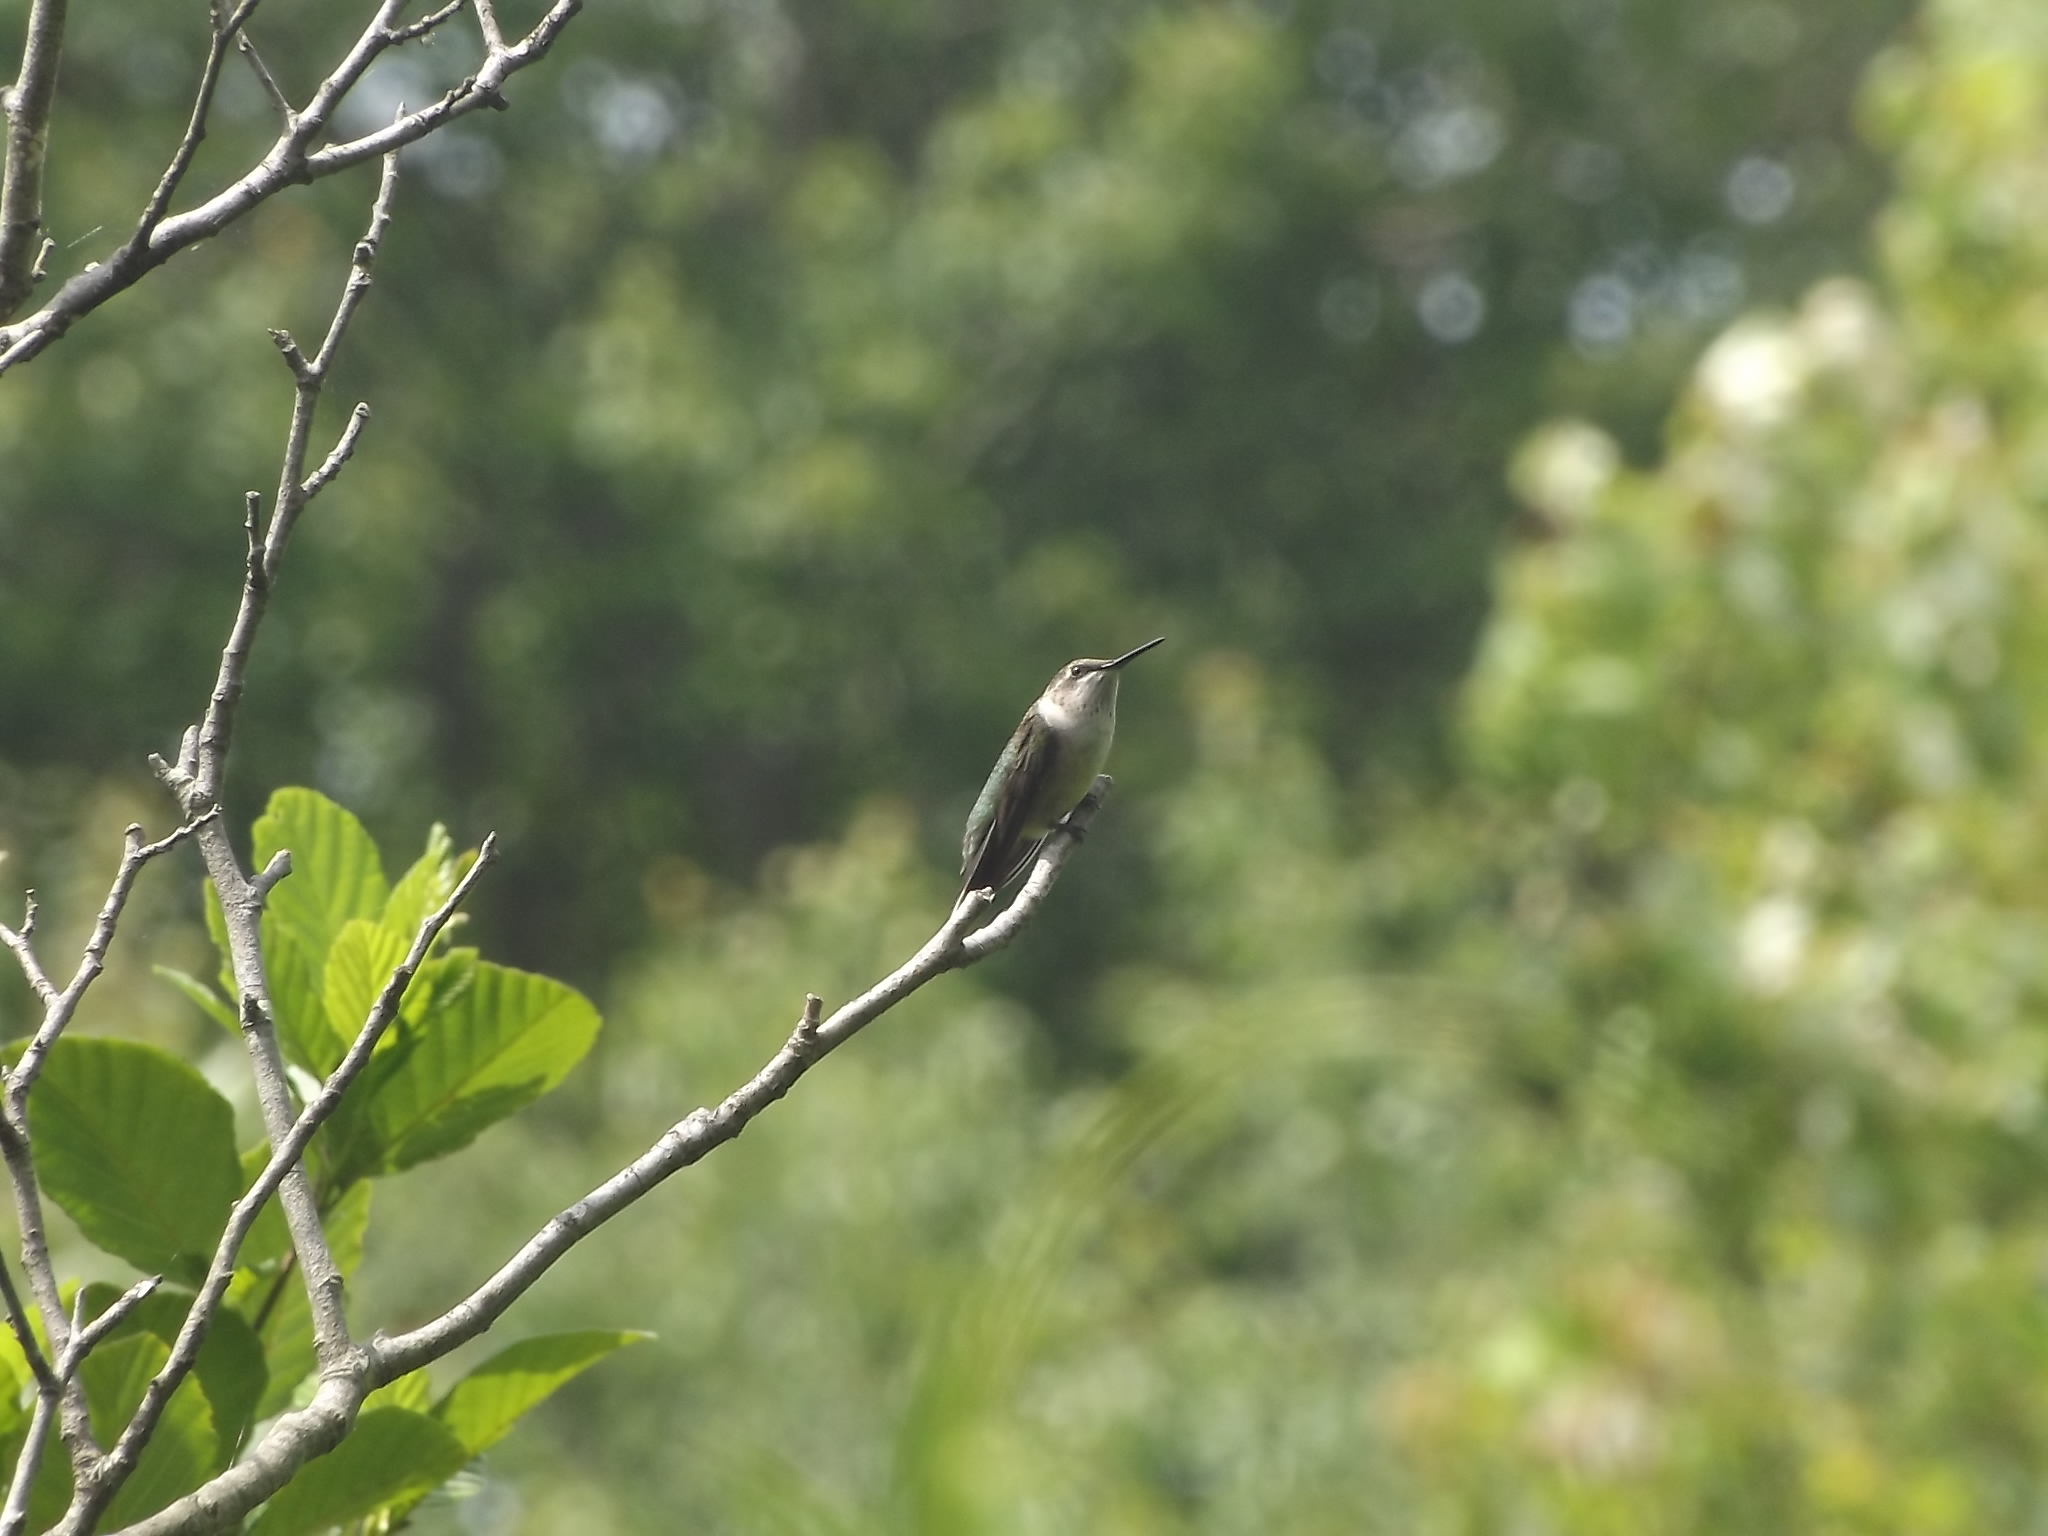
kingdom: Animalia
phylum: Chordata
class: Aves
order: Apodiformes
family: Trochilidae
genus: Archilochus
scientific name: Archilochus colubris
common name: Ruby-throated hummingbird
